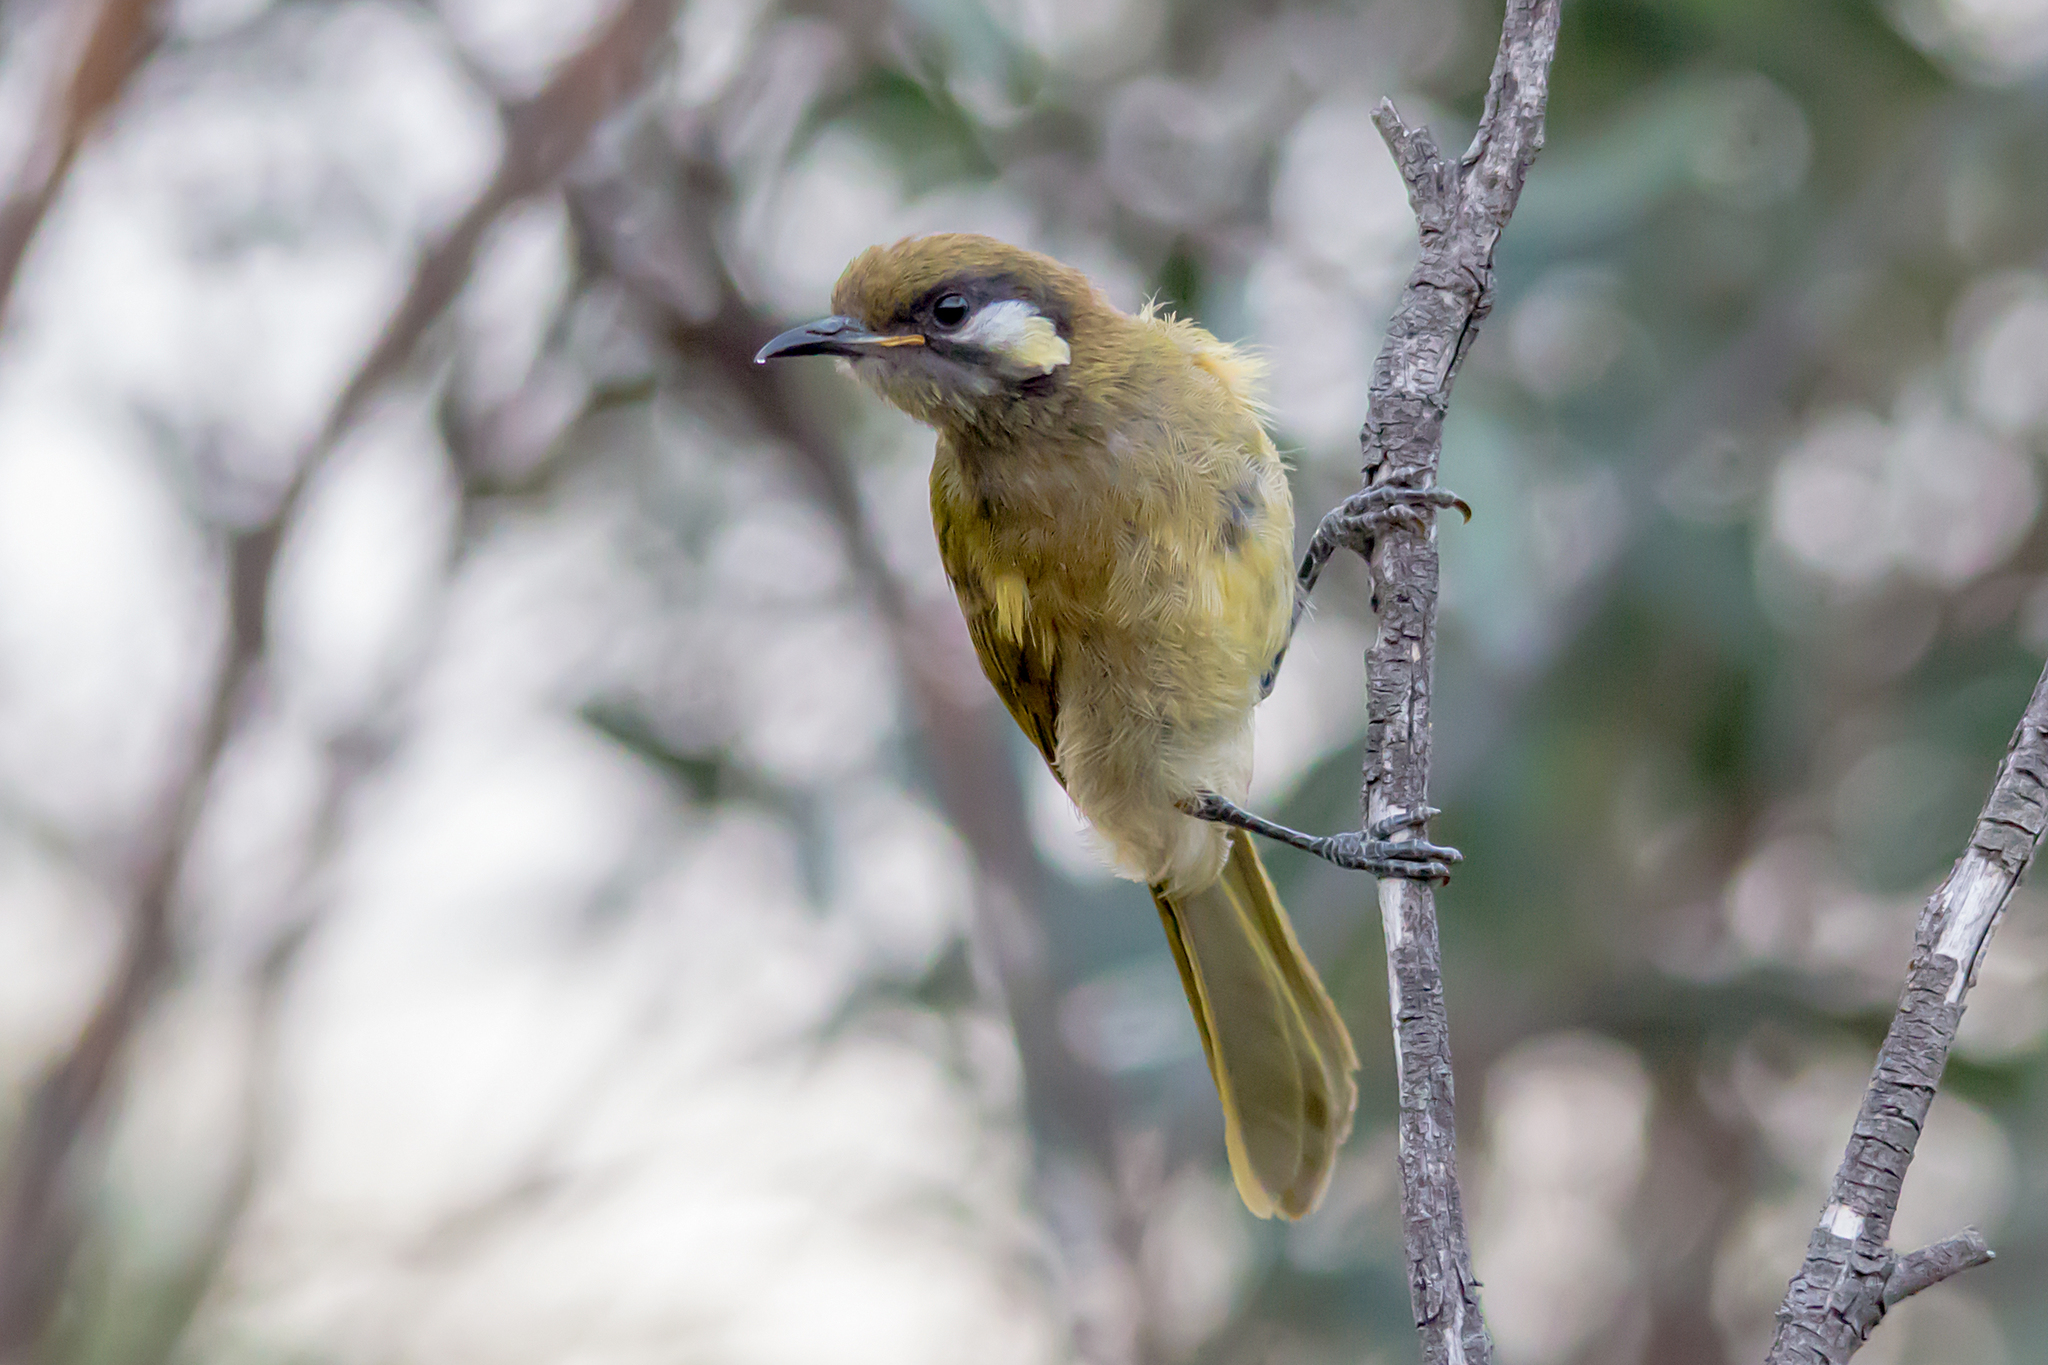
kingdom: Animalia
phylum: Chordata
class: Aves
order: Passeriformes
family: Meliphagidae
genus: Nesoptilotis
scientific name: Nesoptilotis leucotis
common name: White-eared honeyeater
